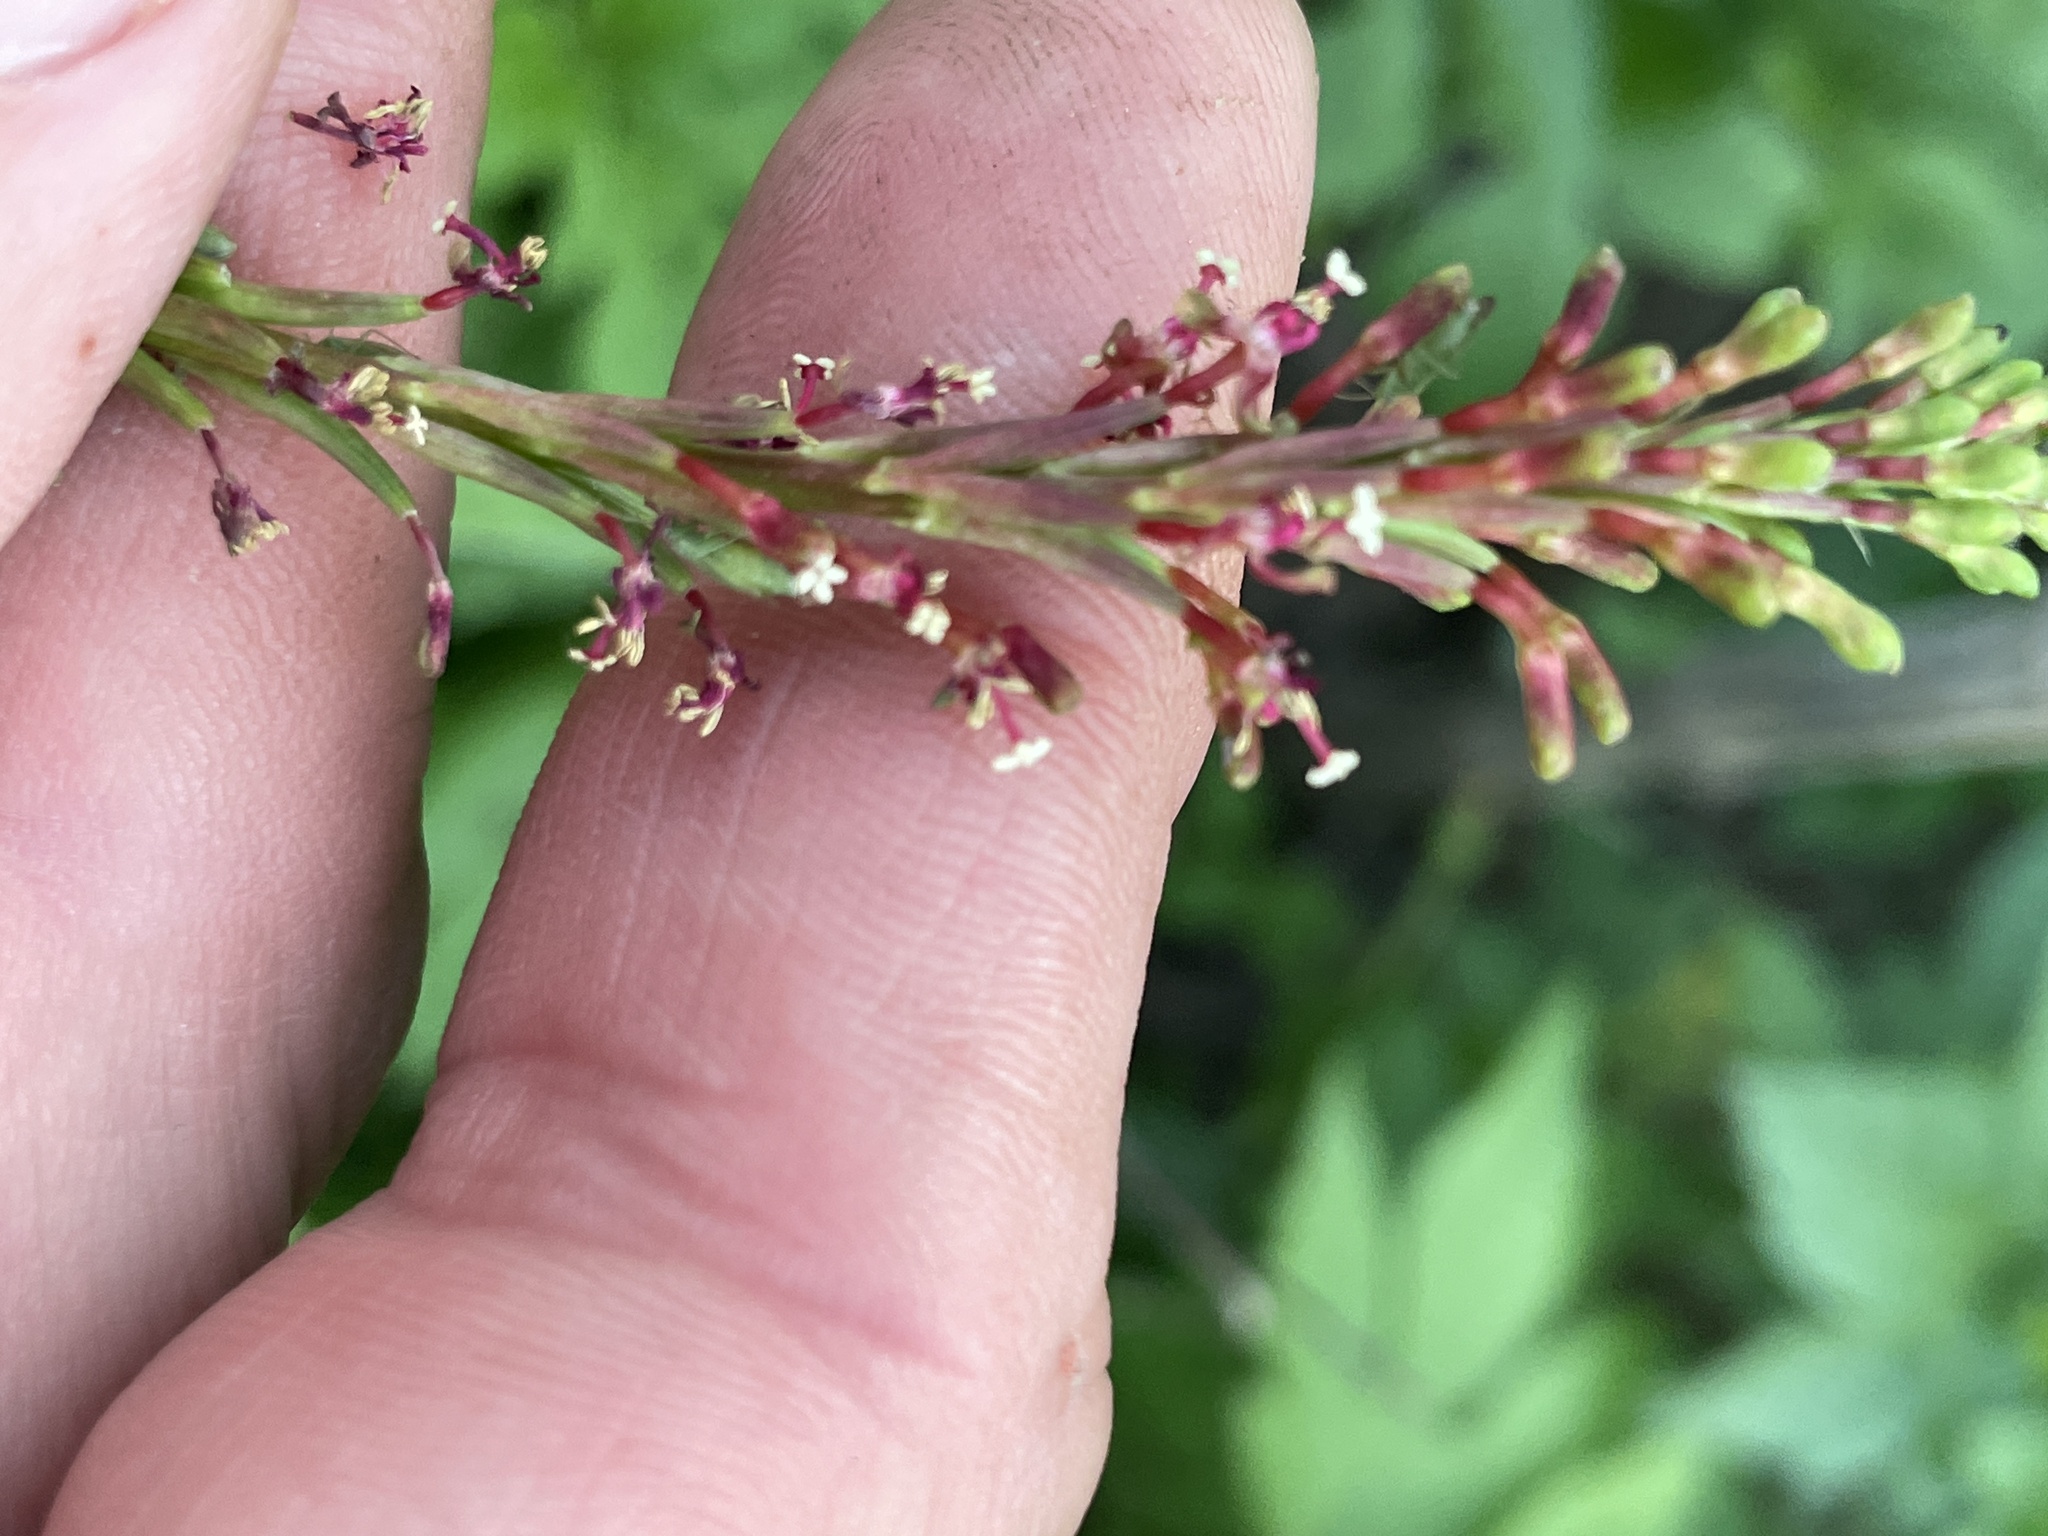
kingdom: Plantae
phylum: Tracheophyta
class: Magnoliopsida
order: Myrtales
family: Onagraceae
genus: Oenothera
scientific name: Oenothera curtiflora
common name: Velvetweed
